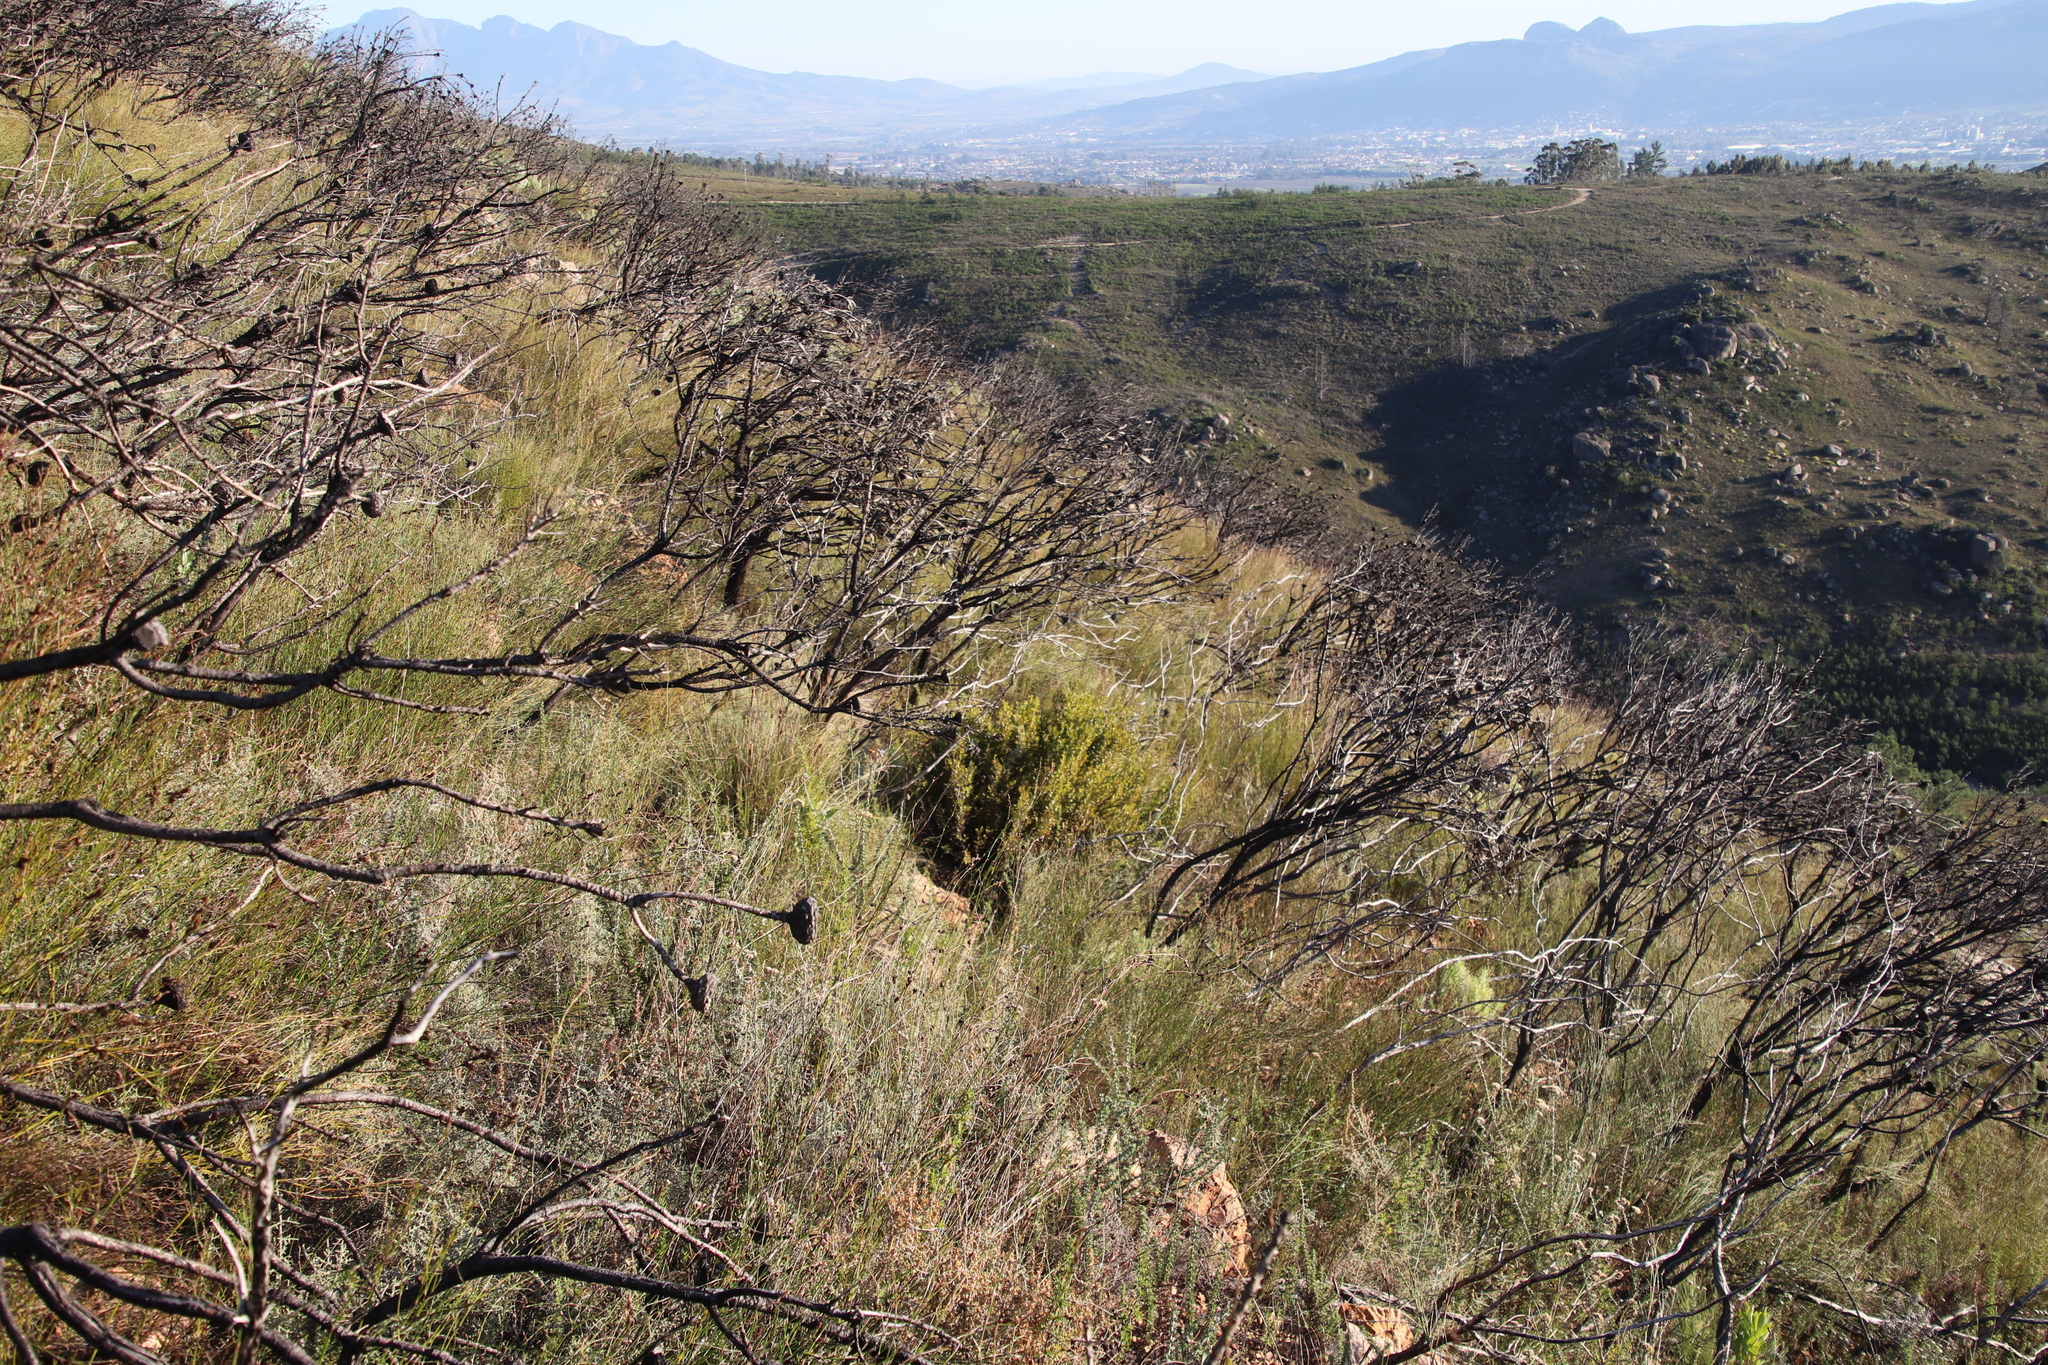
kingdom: Plantae
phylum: Tracheophyta
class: Magnoliopsida
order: Ericales
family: Ebenaceae
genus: Diospyros
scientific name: Diospyros glabra
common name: Fynbos star apple
